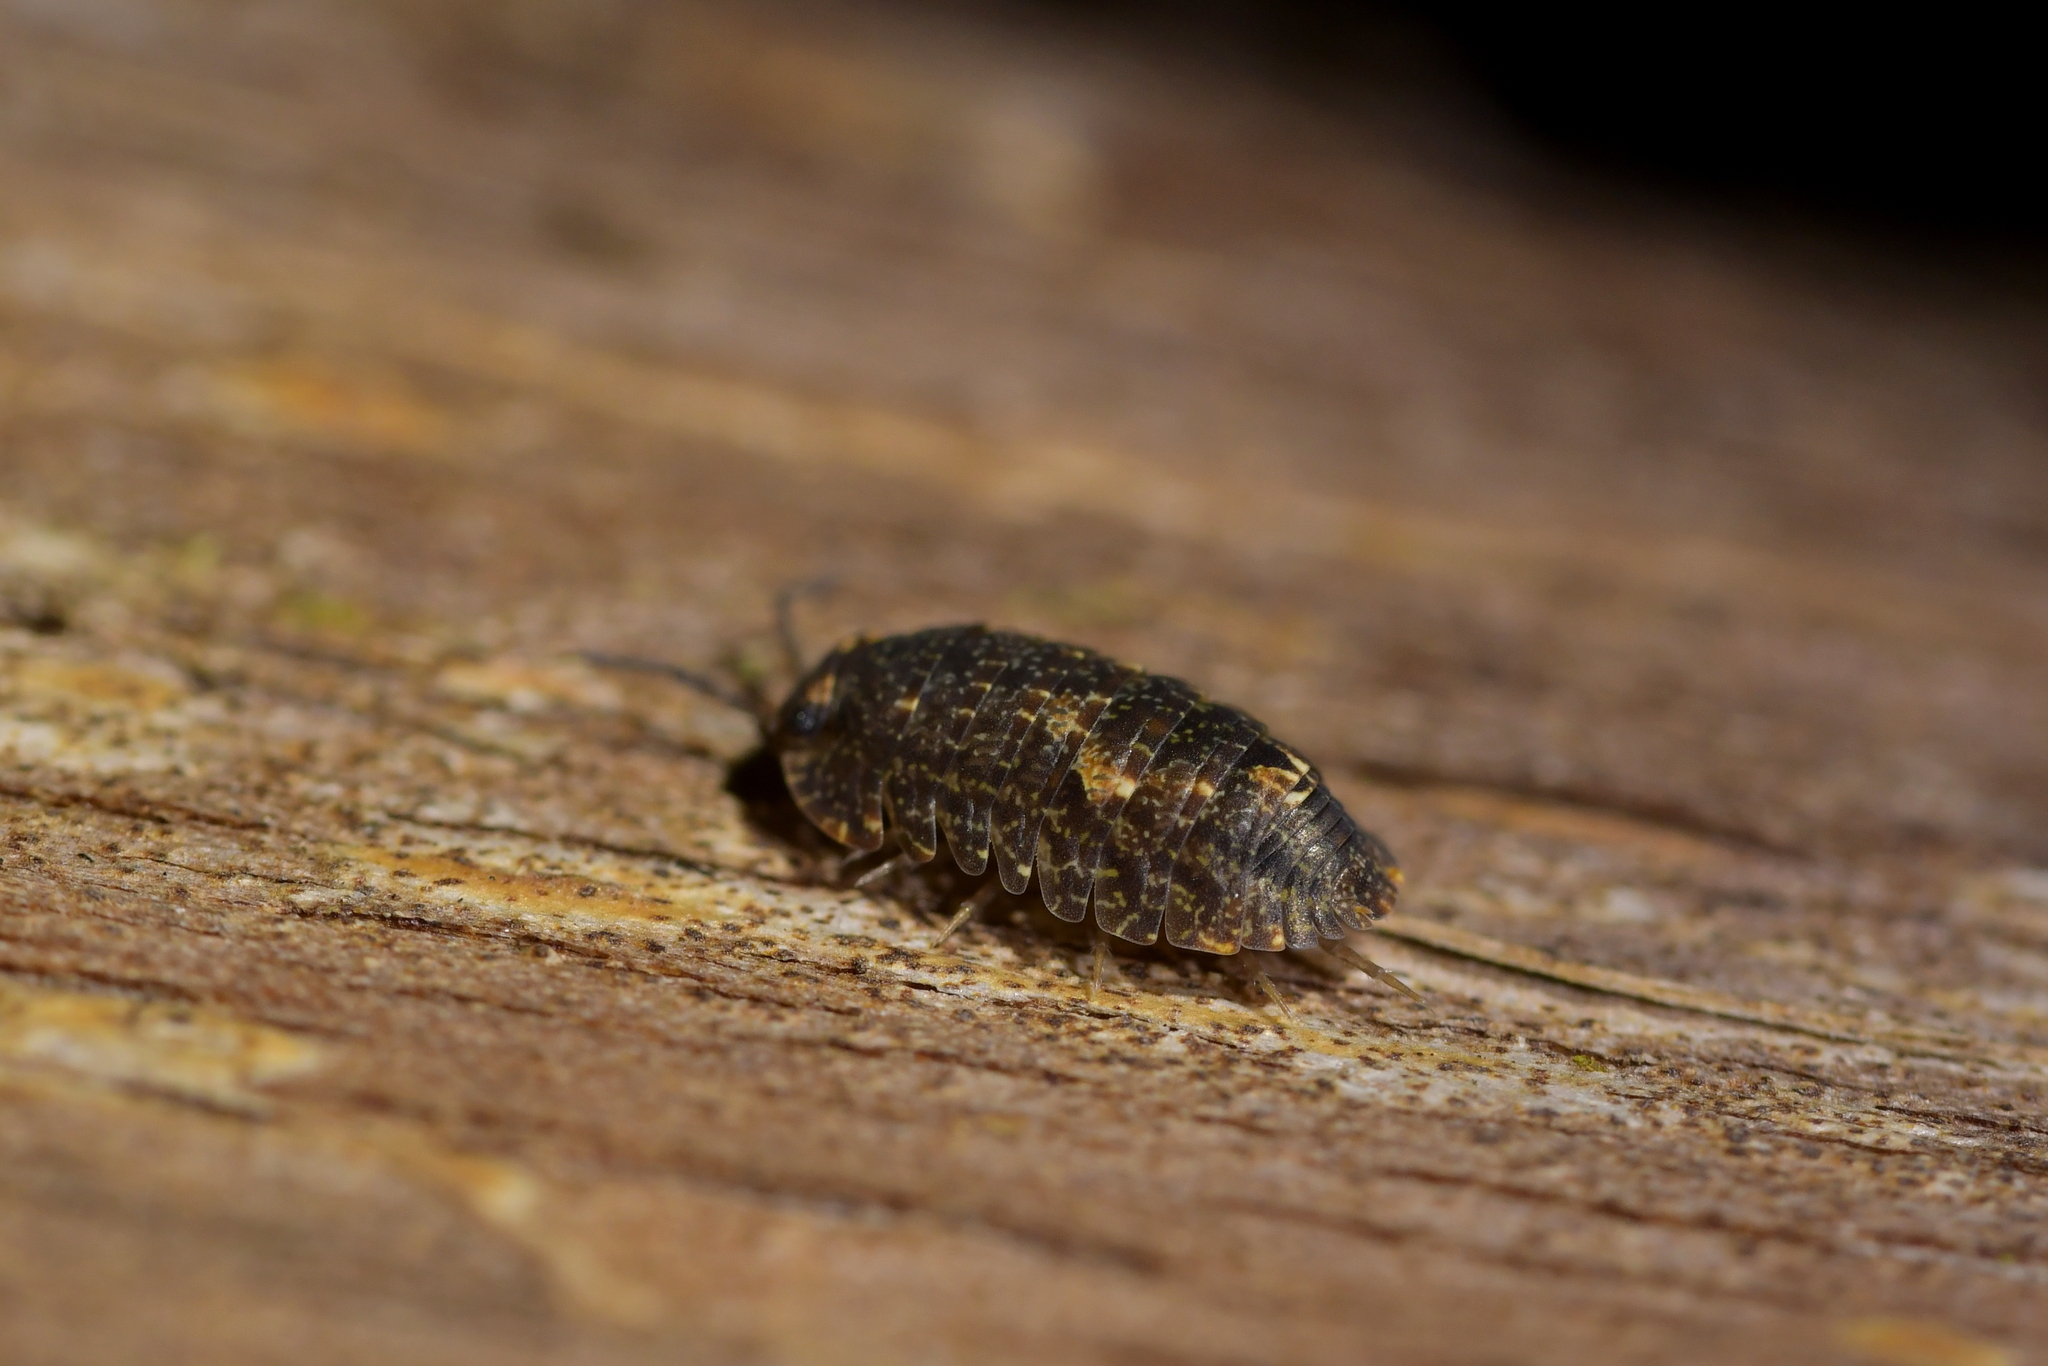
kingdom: Animalia
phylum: Arthropoda
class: Malacostraca
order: Isopoda
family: Armadillidae
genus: Cubaris
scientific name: Cubaris tarangensis
